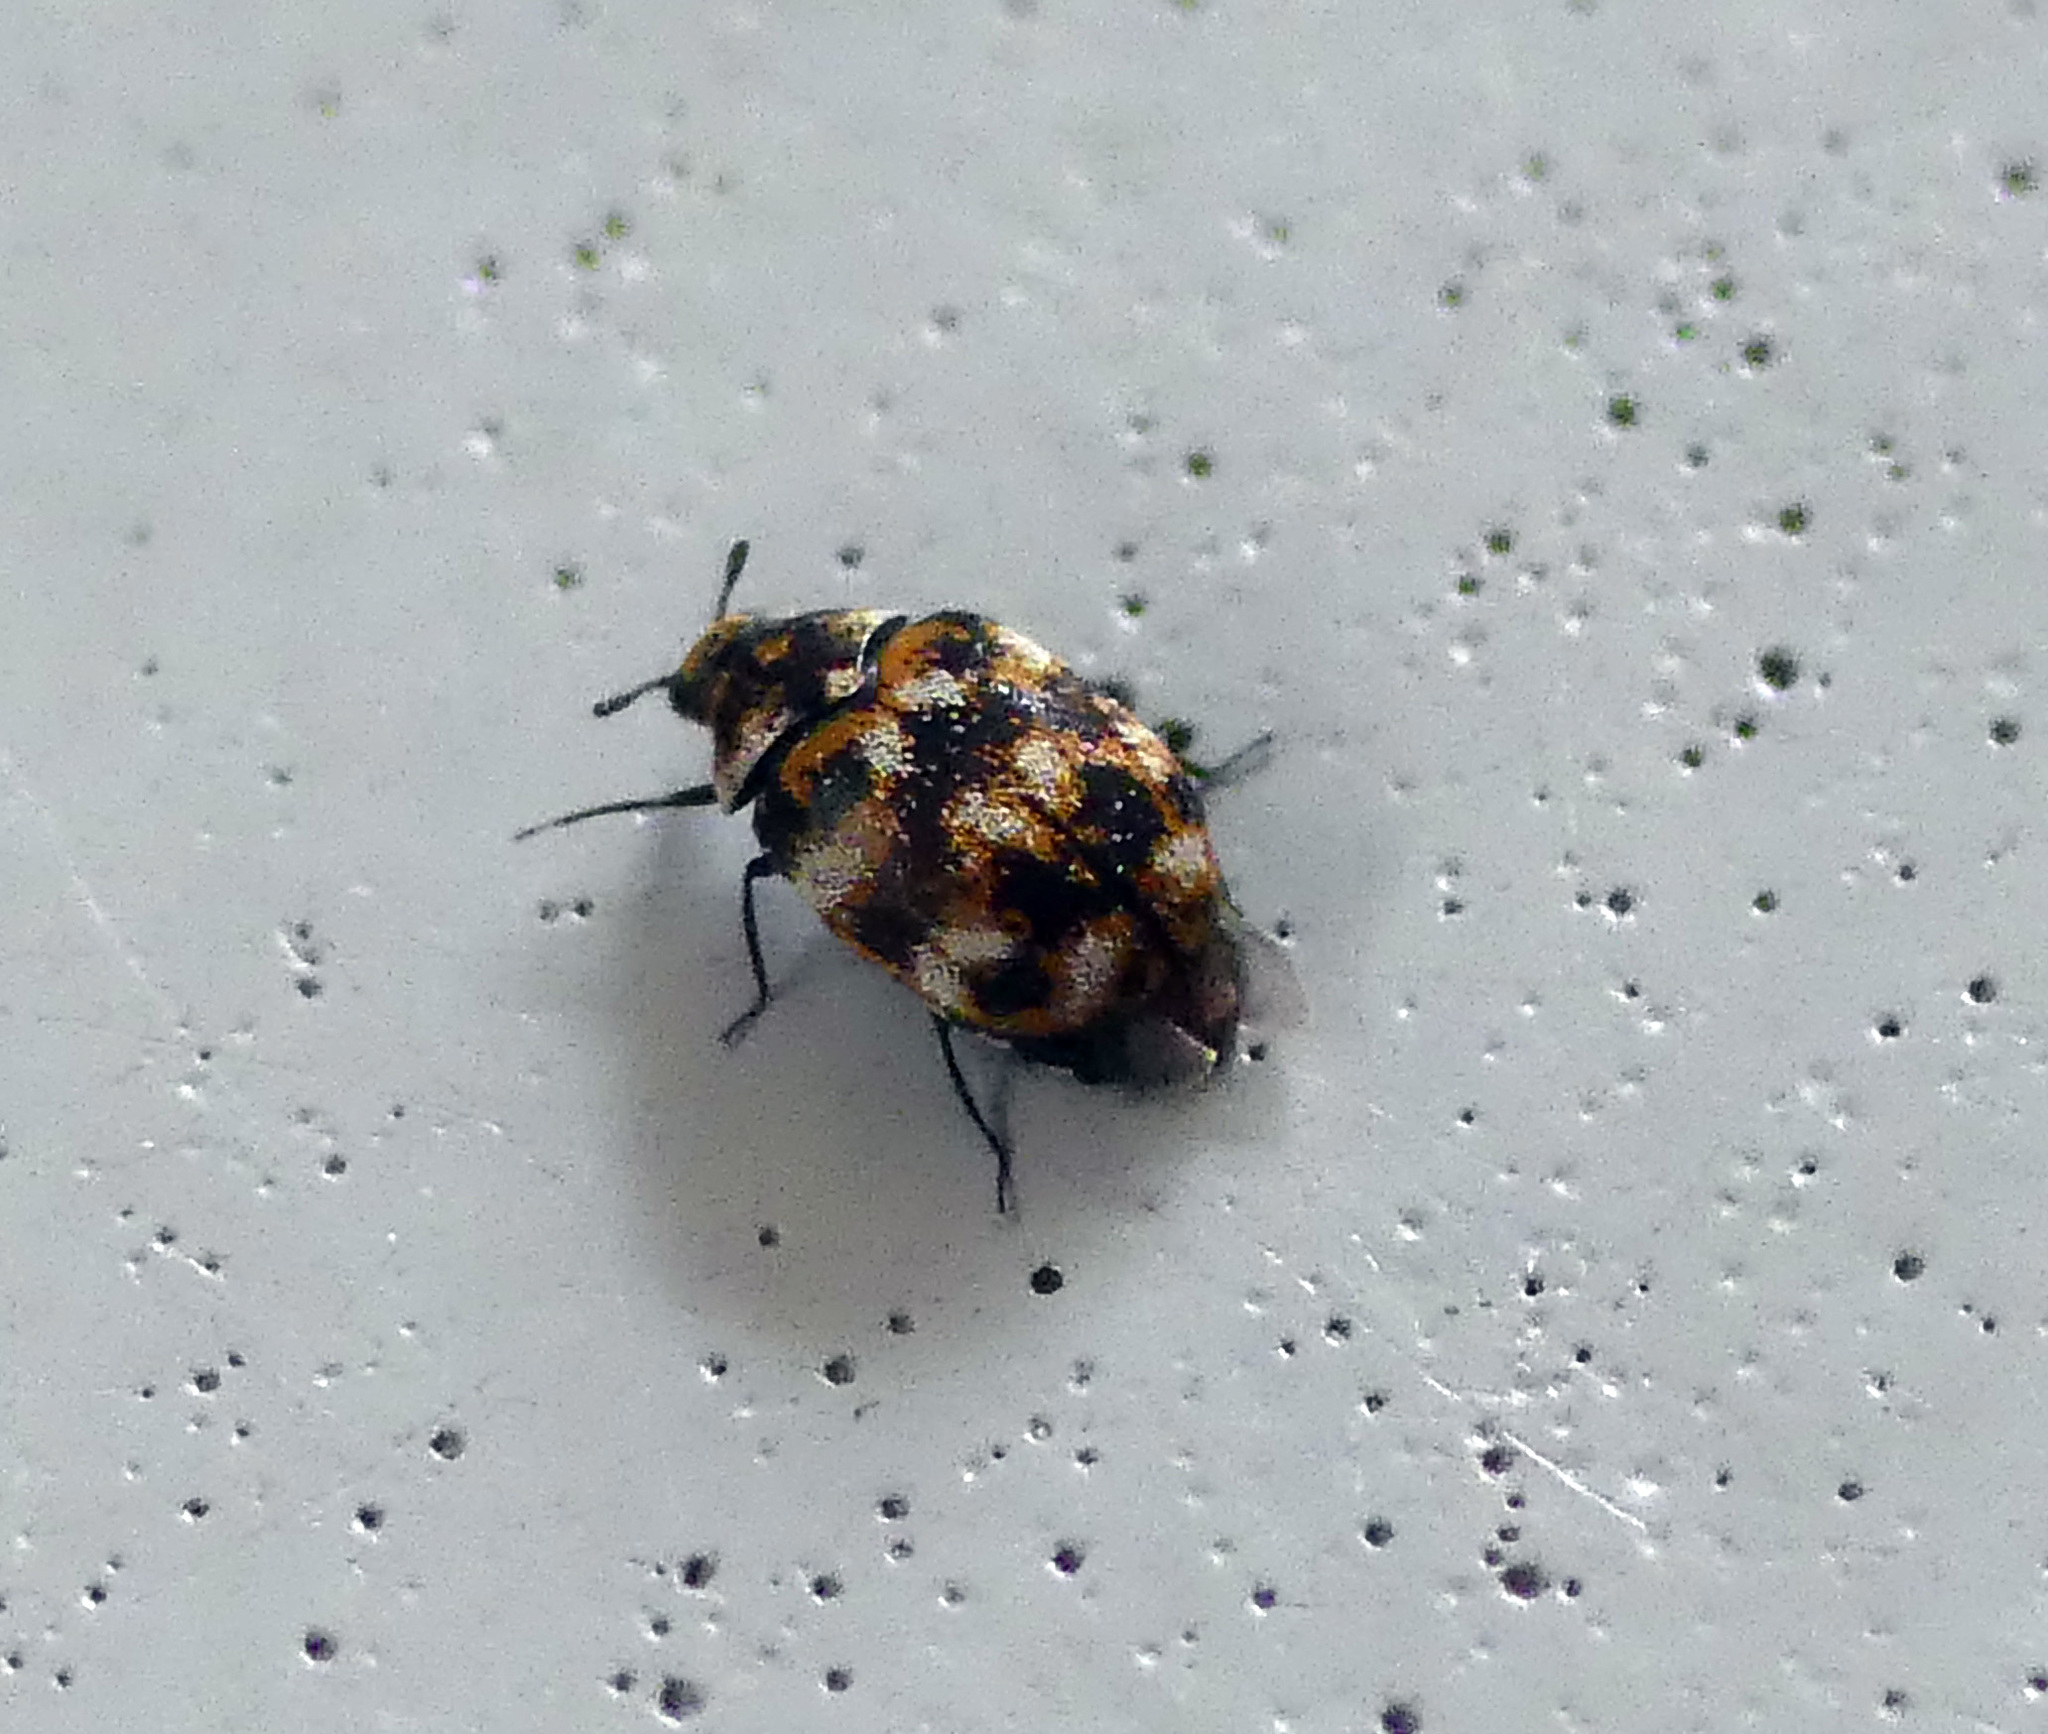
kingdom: Animalia
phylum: Arthropoda
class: Insecta
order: Coleoptera
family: Dermestidae
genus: Anthrenus
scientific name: Anthrenus verbasci
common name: Varied carpet beetle
